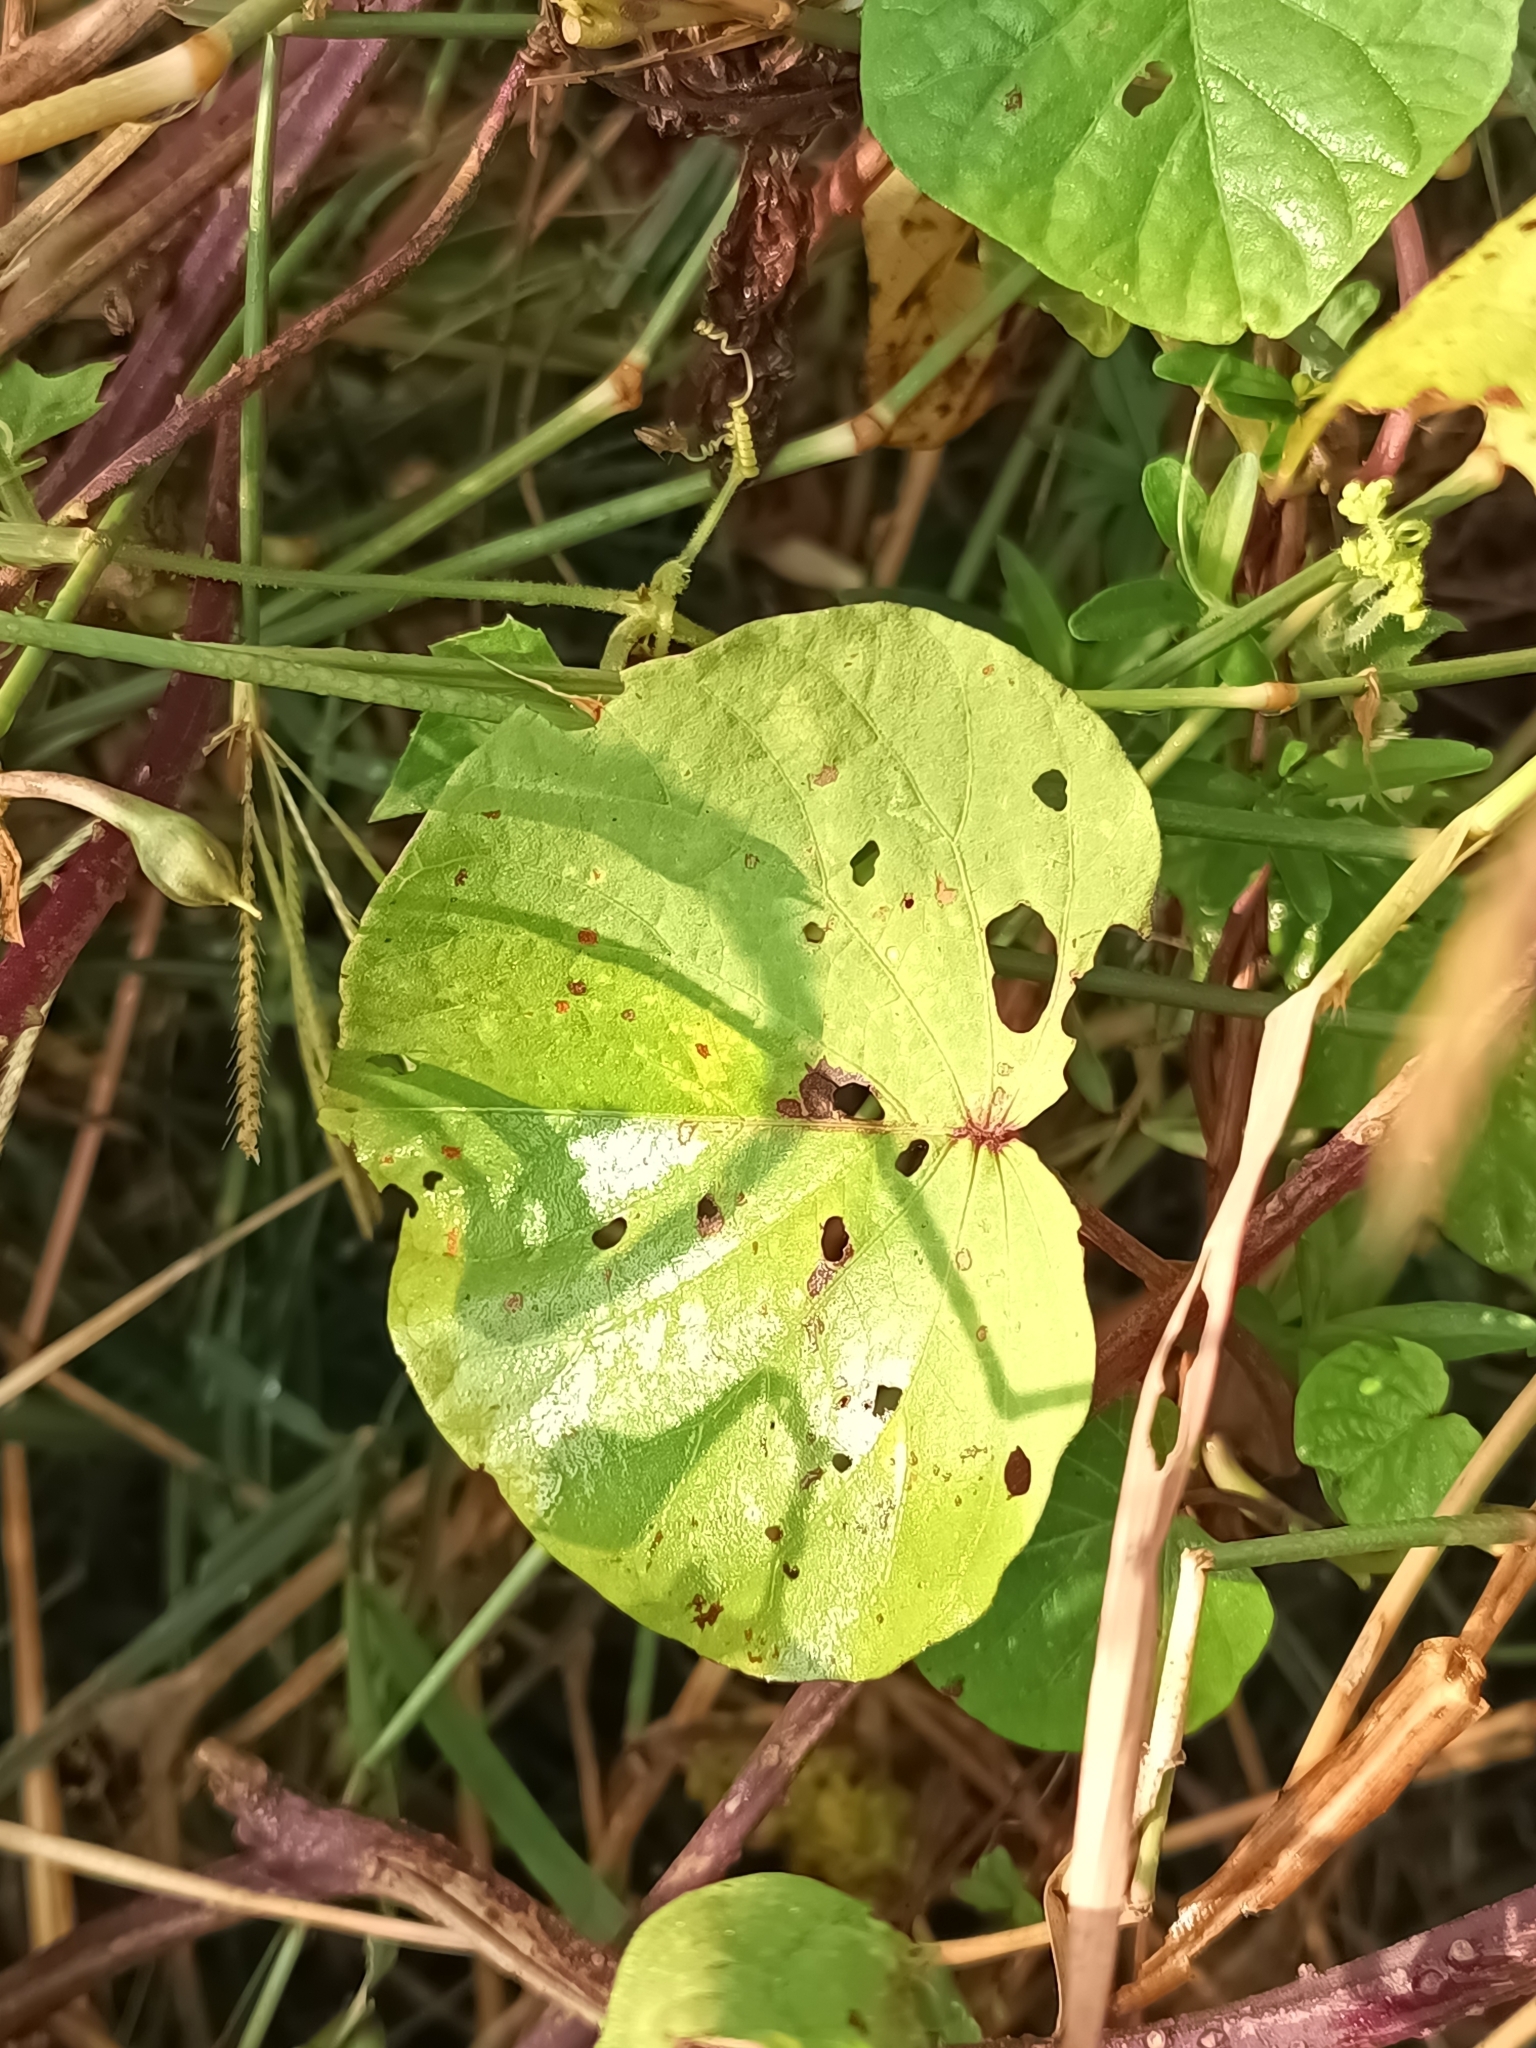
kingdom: Plantae
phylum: Tracheophyta
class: Magnoliopsida
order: Solanales
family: Convolvulaceae
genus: Ipomoea
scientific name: Ipomoea parasitica
